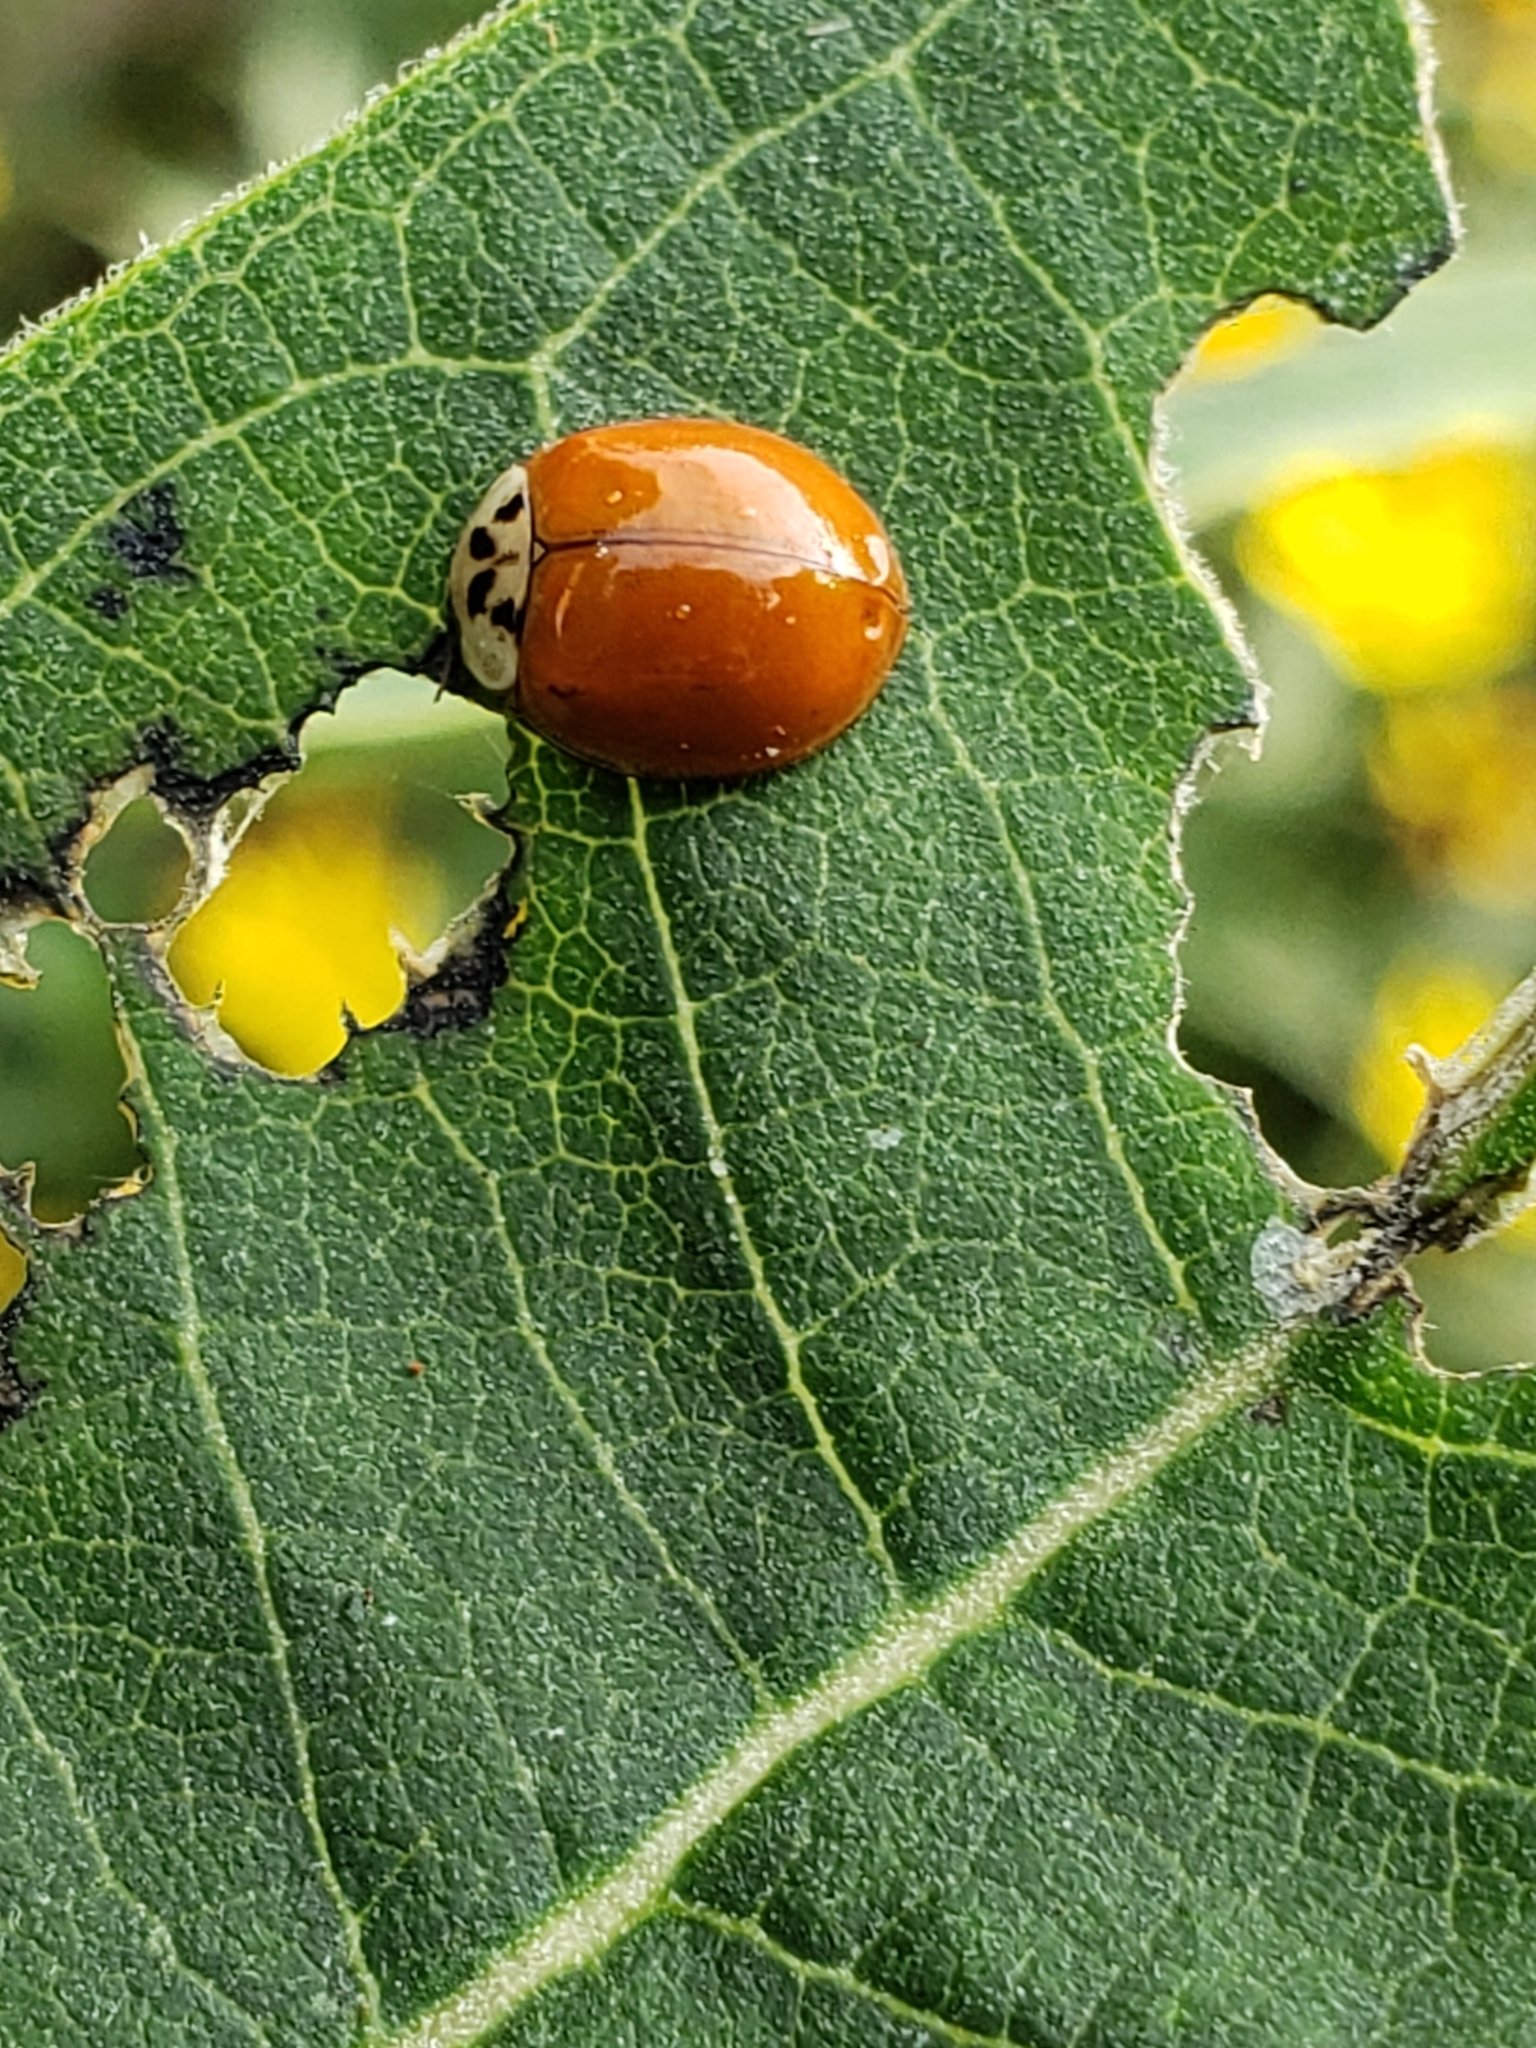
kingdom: Animalia
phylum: Arthropoda
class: Insecta
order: Coleoptera
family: Coccinellidae
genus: Harmonia
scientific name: Harmonia axyridis
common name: Harlequin ladybird
